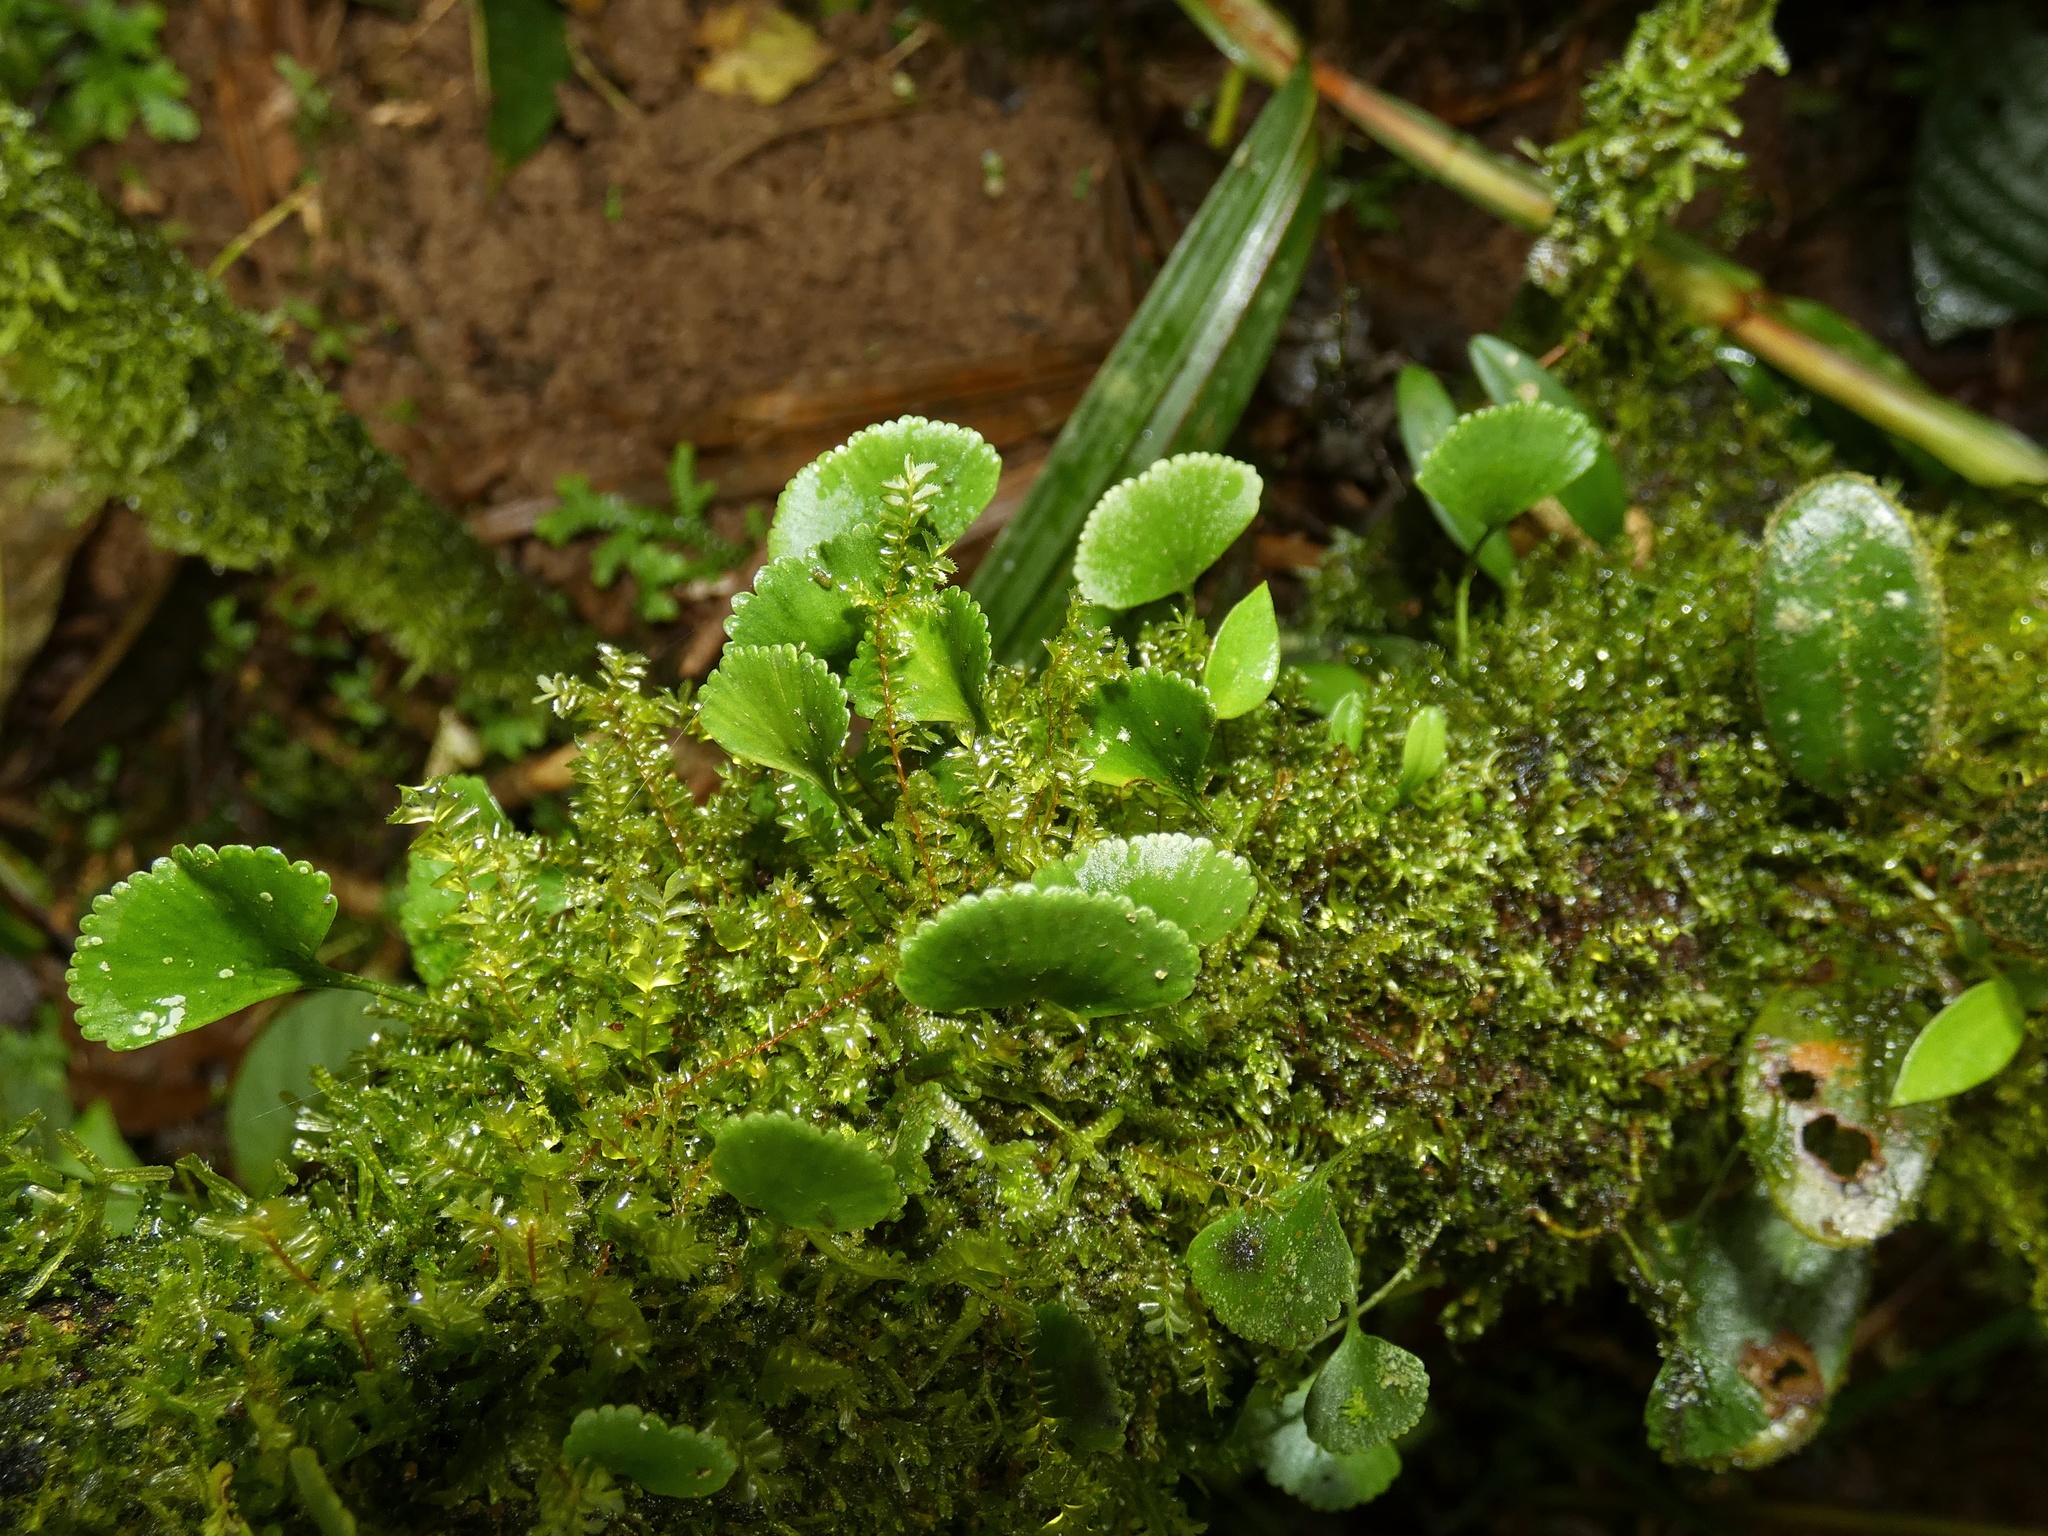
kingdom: Plantae
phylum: Tracheophyta
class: Polypodiopsida
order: Polypodiales
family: Dryopteridaceae
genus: Elaphoglossum
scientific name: Elaphoglossum peltatum
